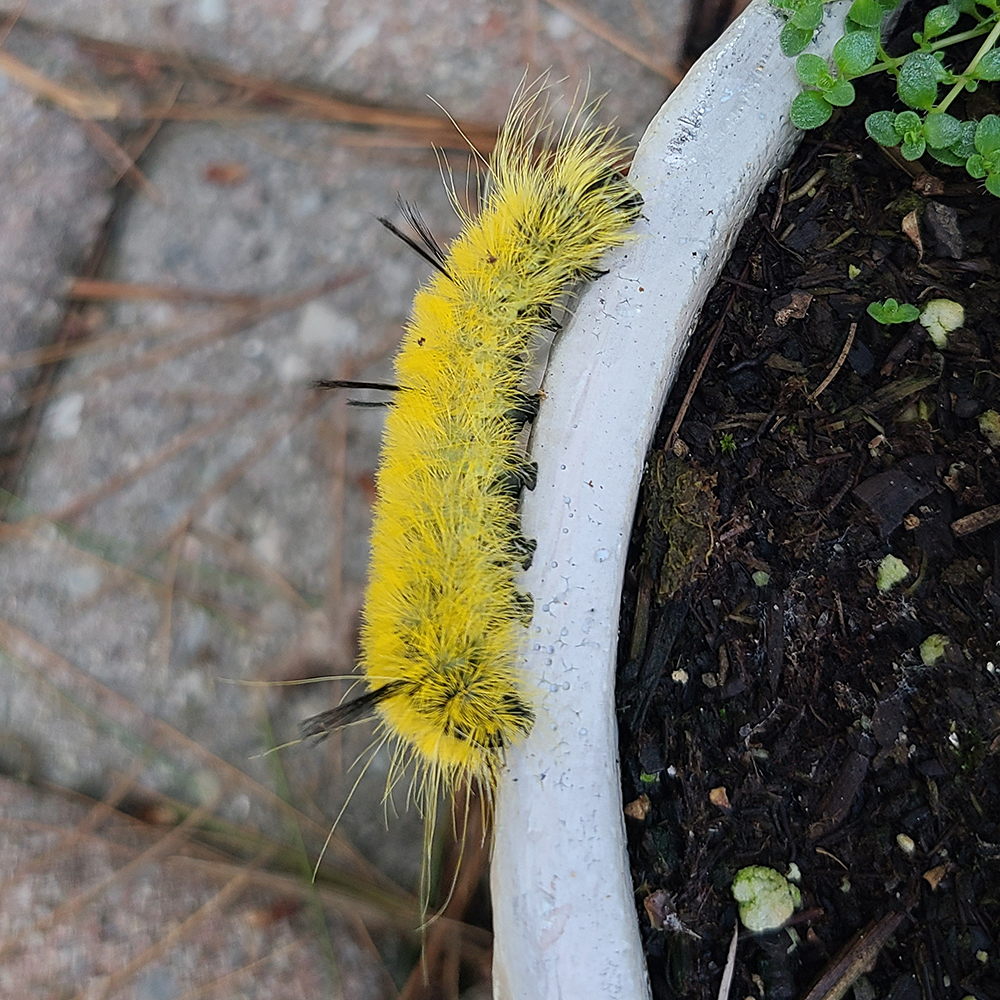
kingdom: Animalia
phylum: Arthropoda
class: Insecta
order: Lepidoptera
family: Noctuidae
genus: Acronicta
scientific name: Acronicta americana
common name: American dagger
